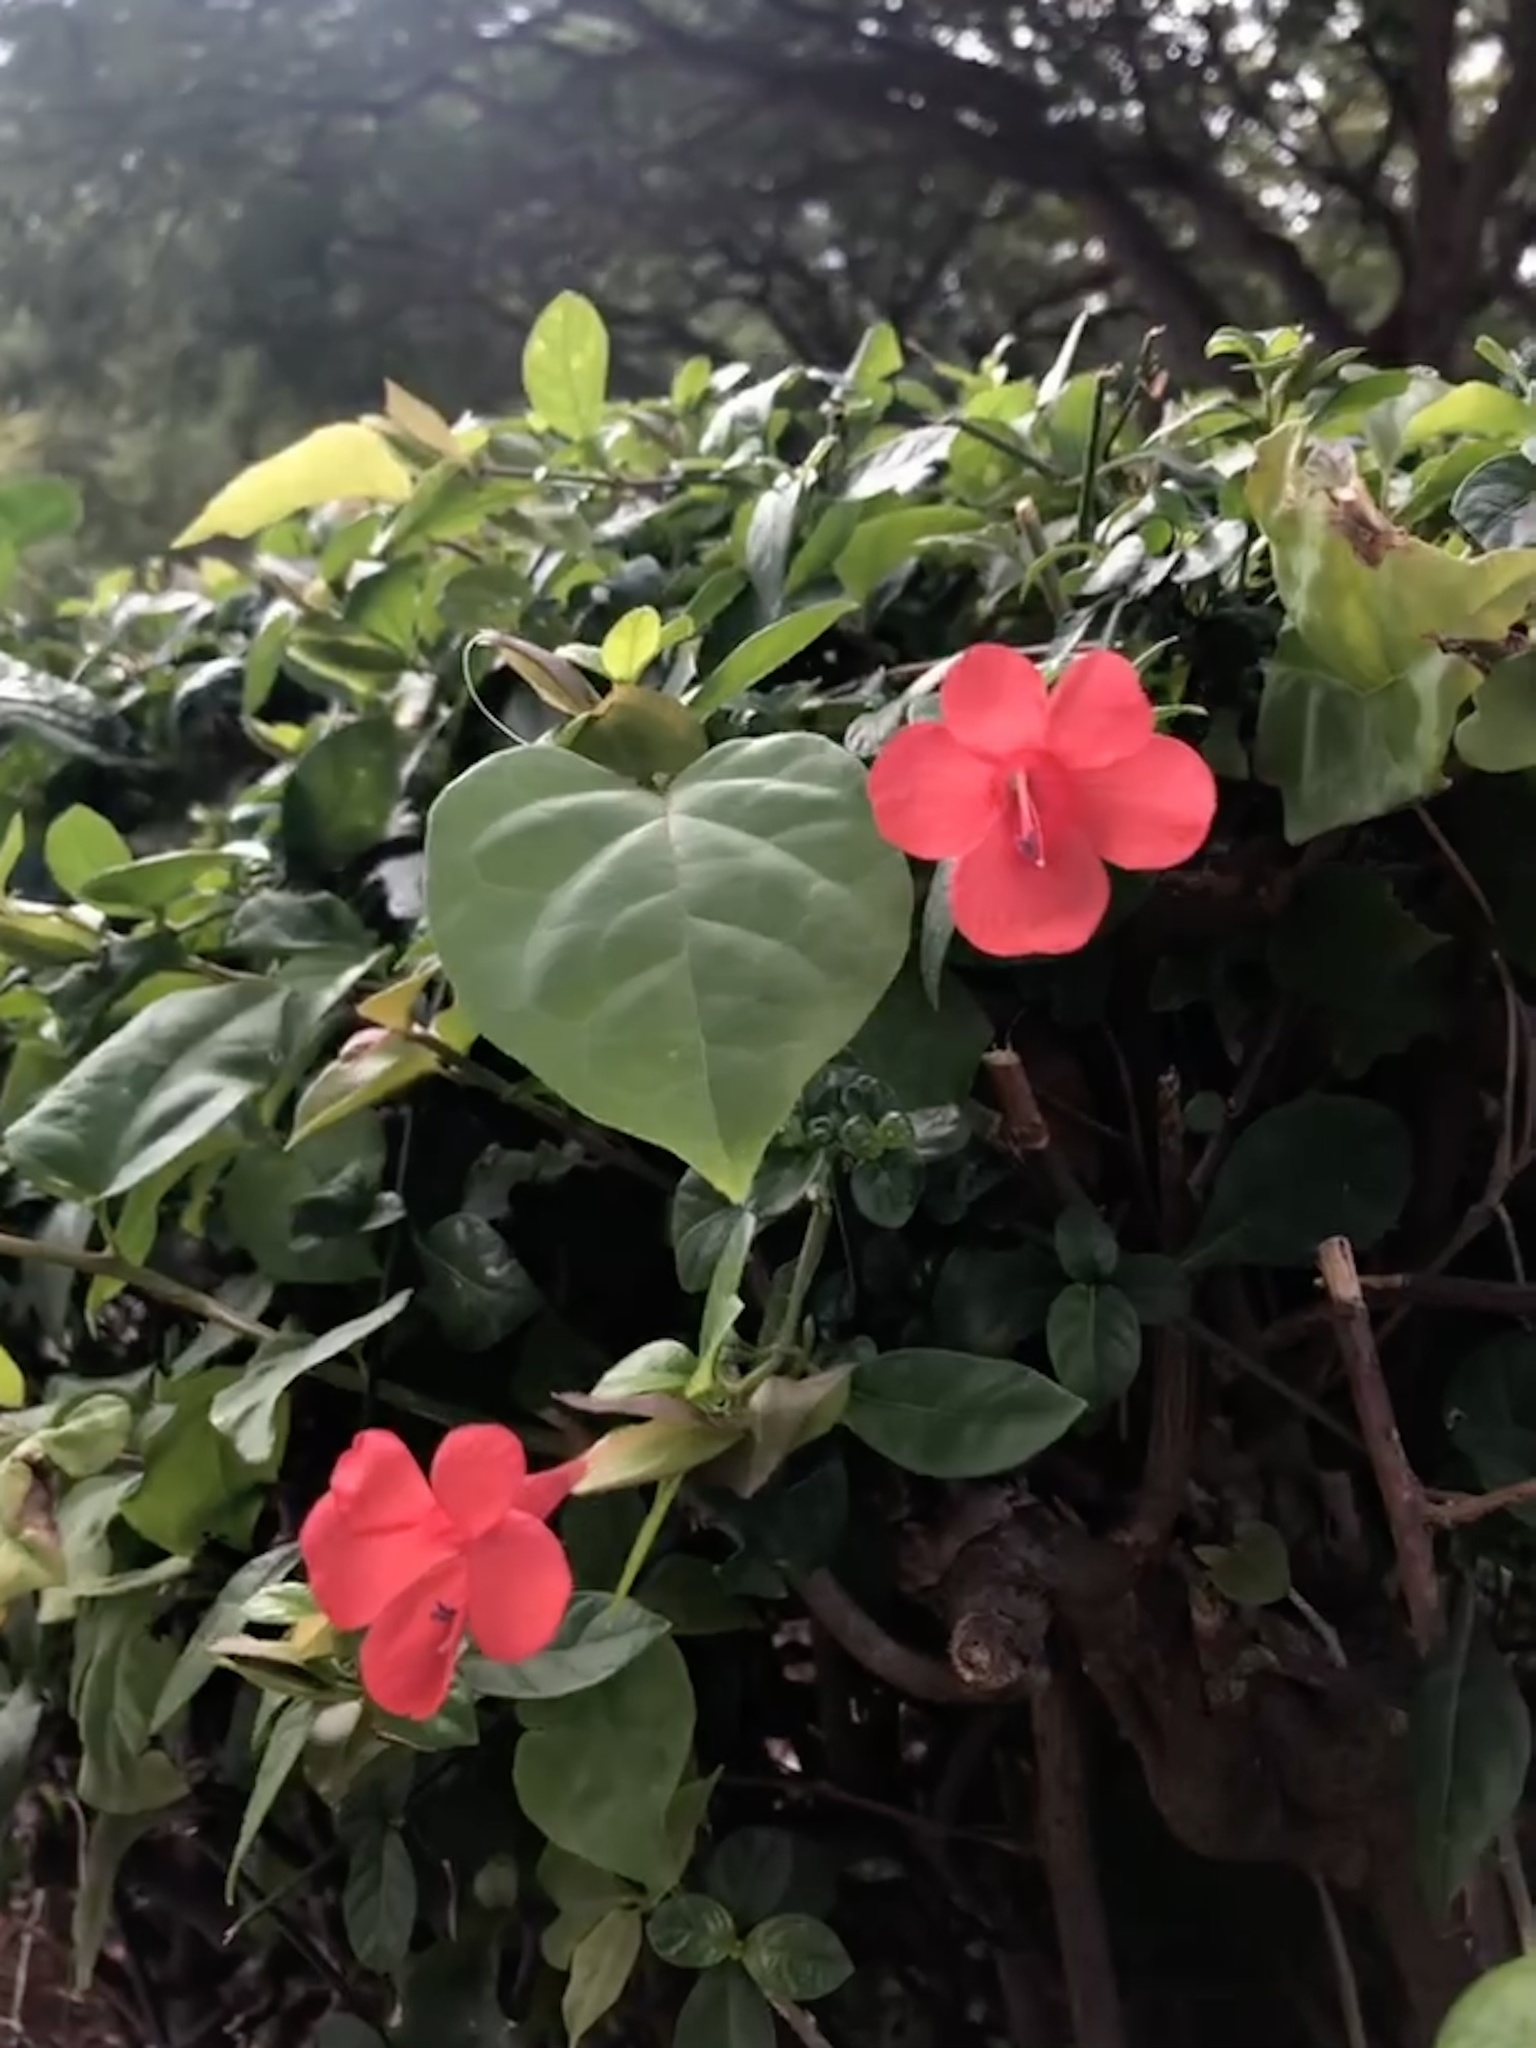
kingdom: Plantae
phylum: Tracheophyta
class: Magnoliopsida
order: Lamiales
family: Acanthaceae
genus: Barleria
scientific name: Barleria repens
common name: Pink-ruellia
